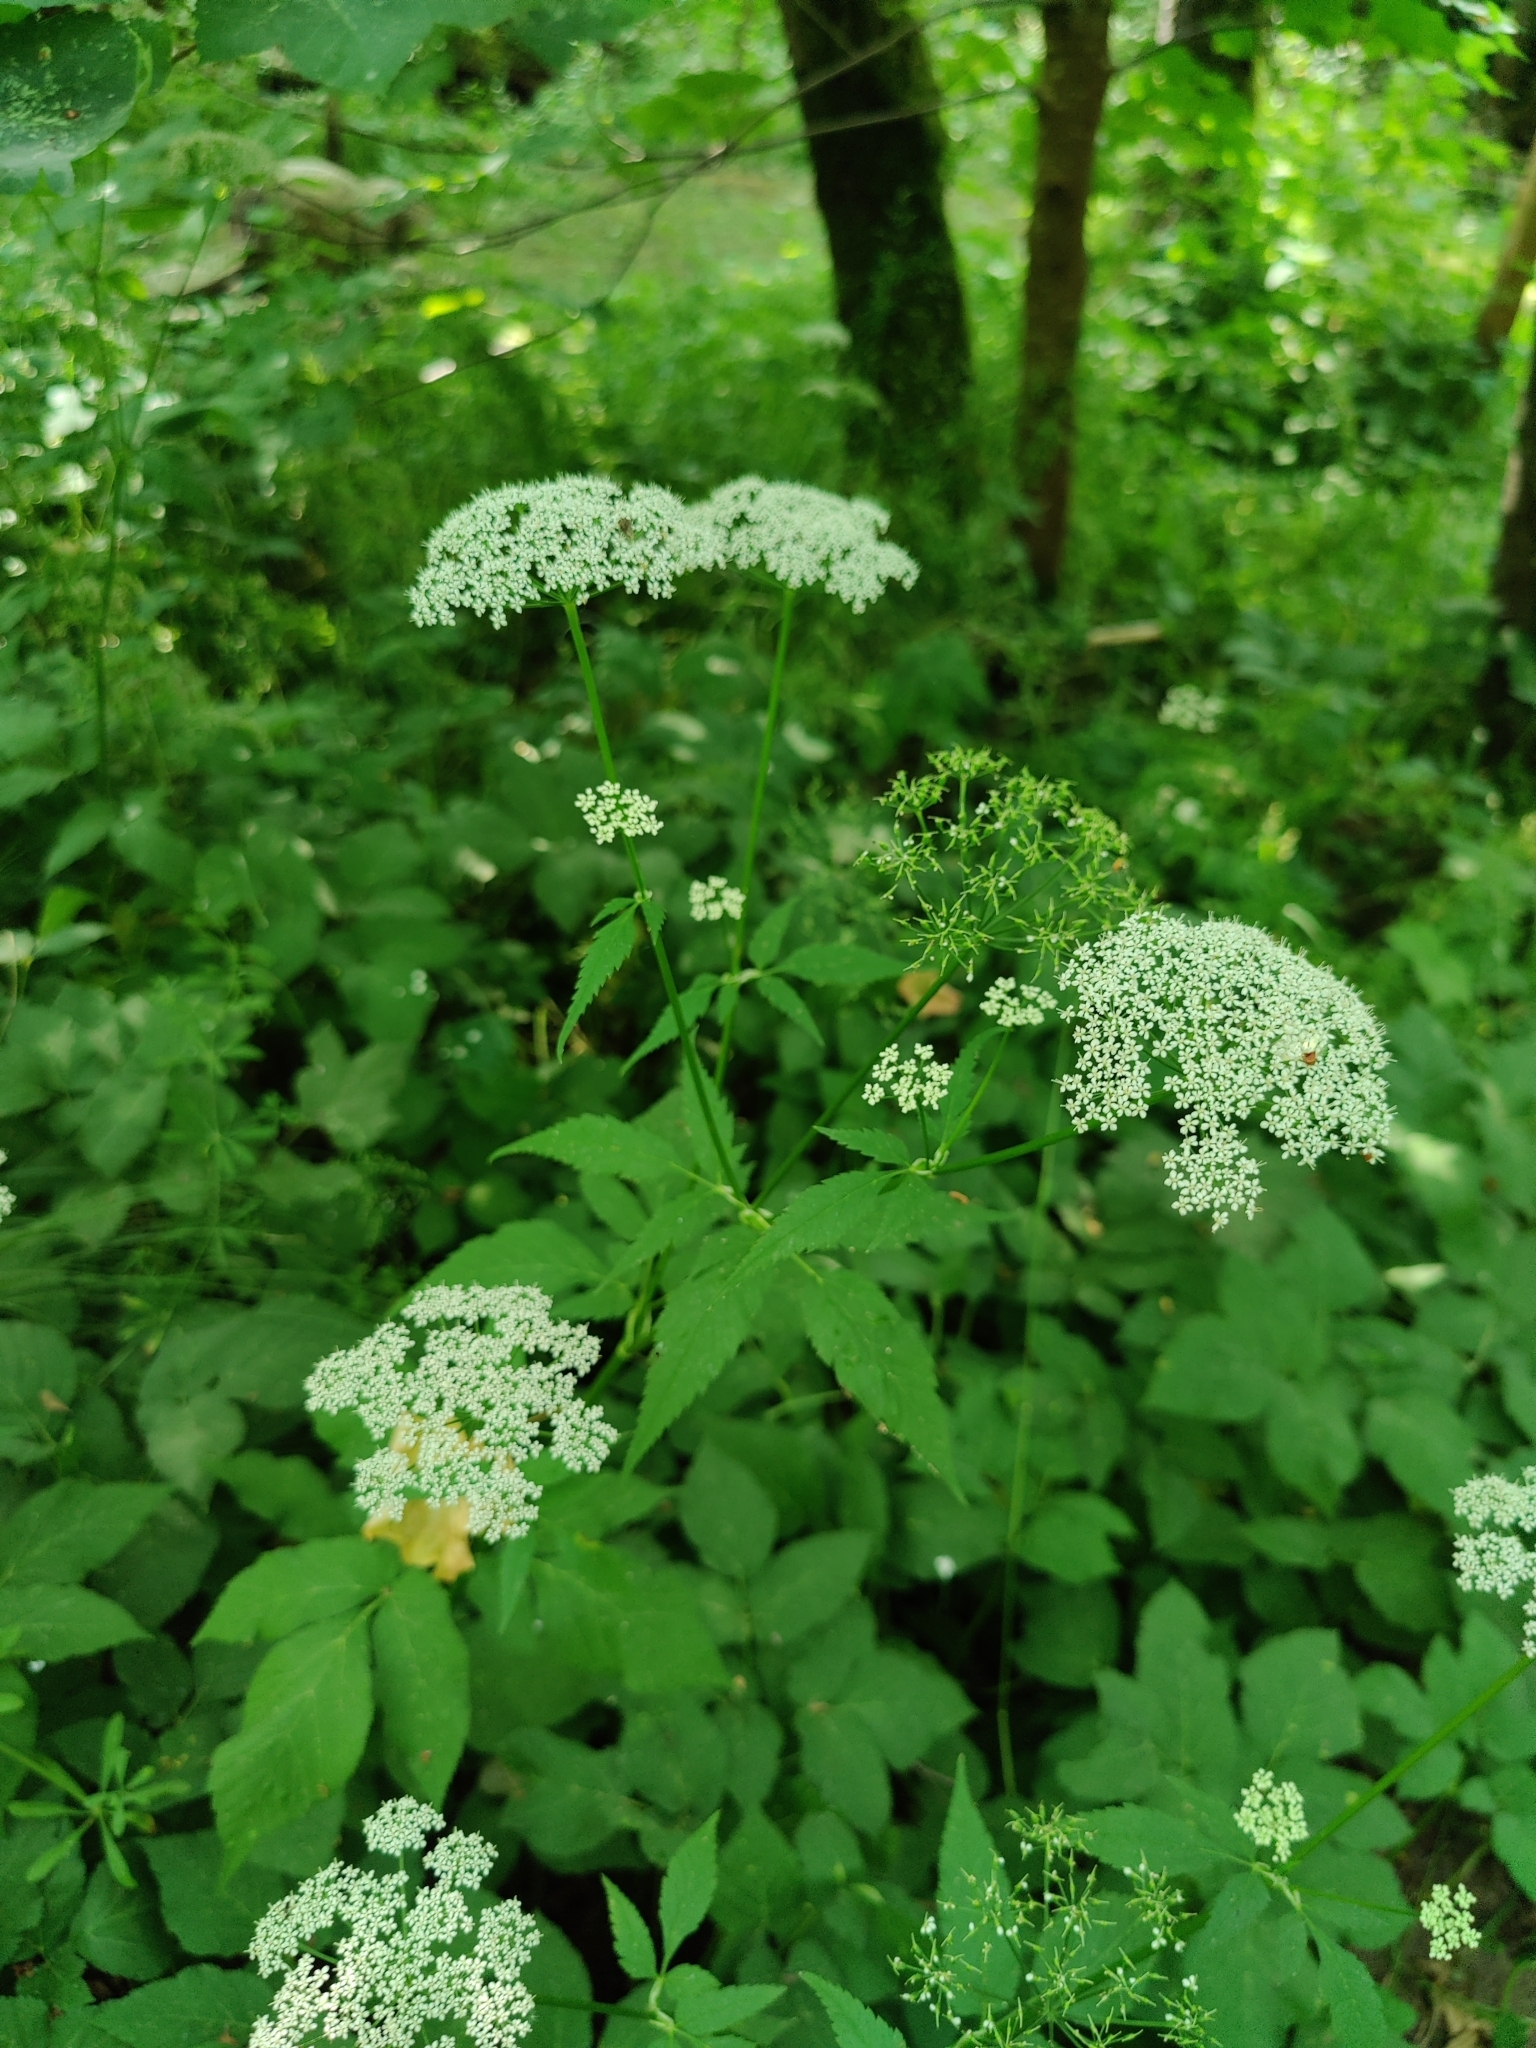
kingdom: Plantae
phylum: Tracheophyta
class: Magnoliopsida
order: Apiales
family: Apiaceae
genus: Aegopodium
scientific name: Aegopodium podagraria
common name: Ground-elder
